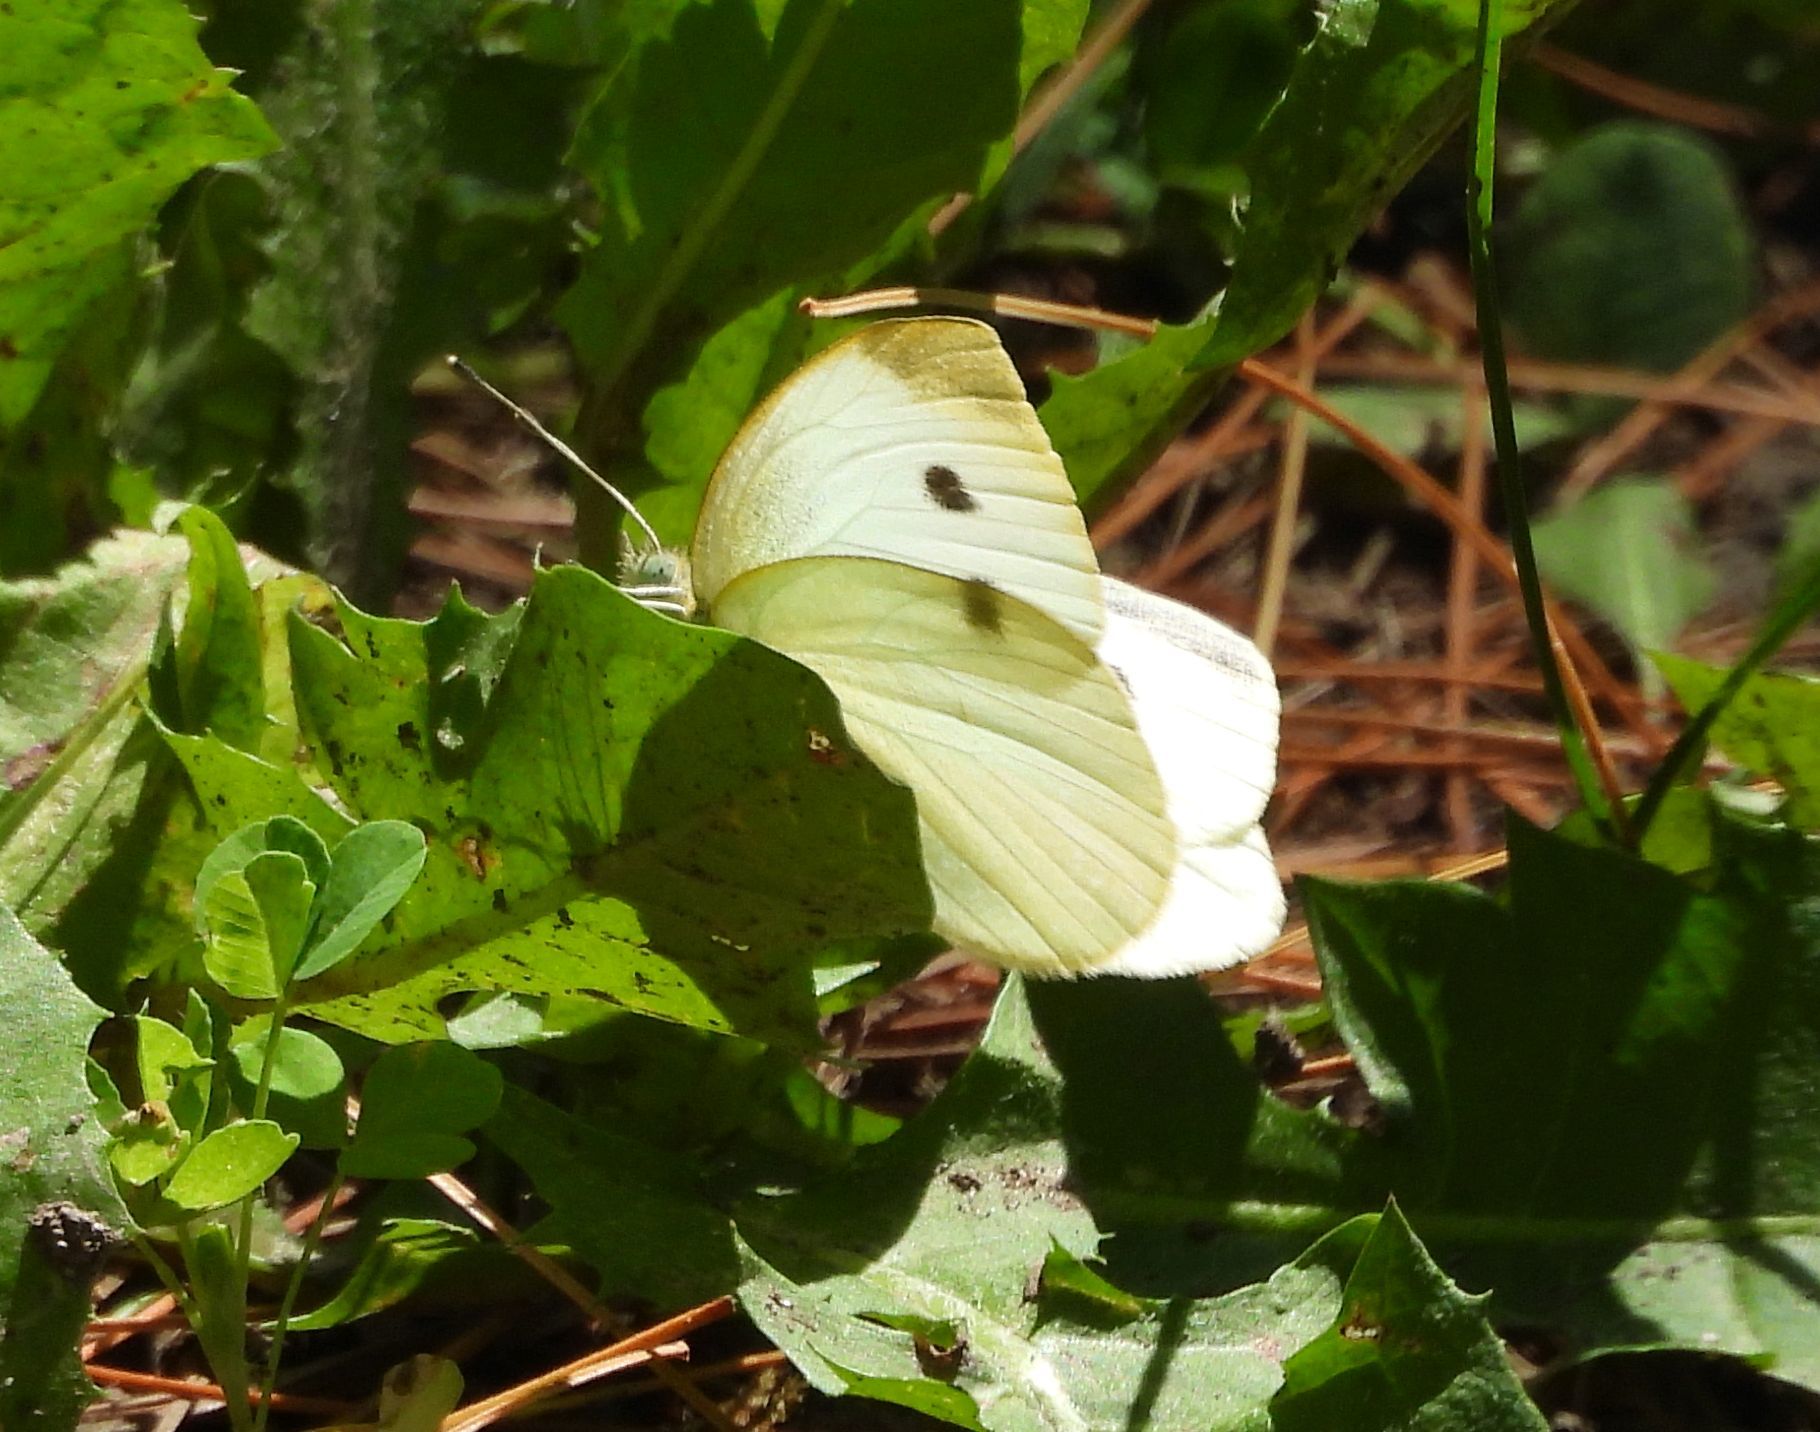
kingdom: Animalia
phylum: Arthropoda
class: Insecta
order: Lepidoptera
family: Pieridae
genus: Pieris
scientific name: Pieris rapae
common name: Small white
